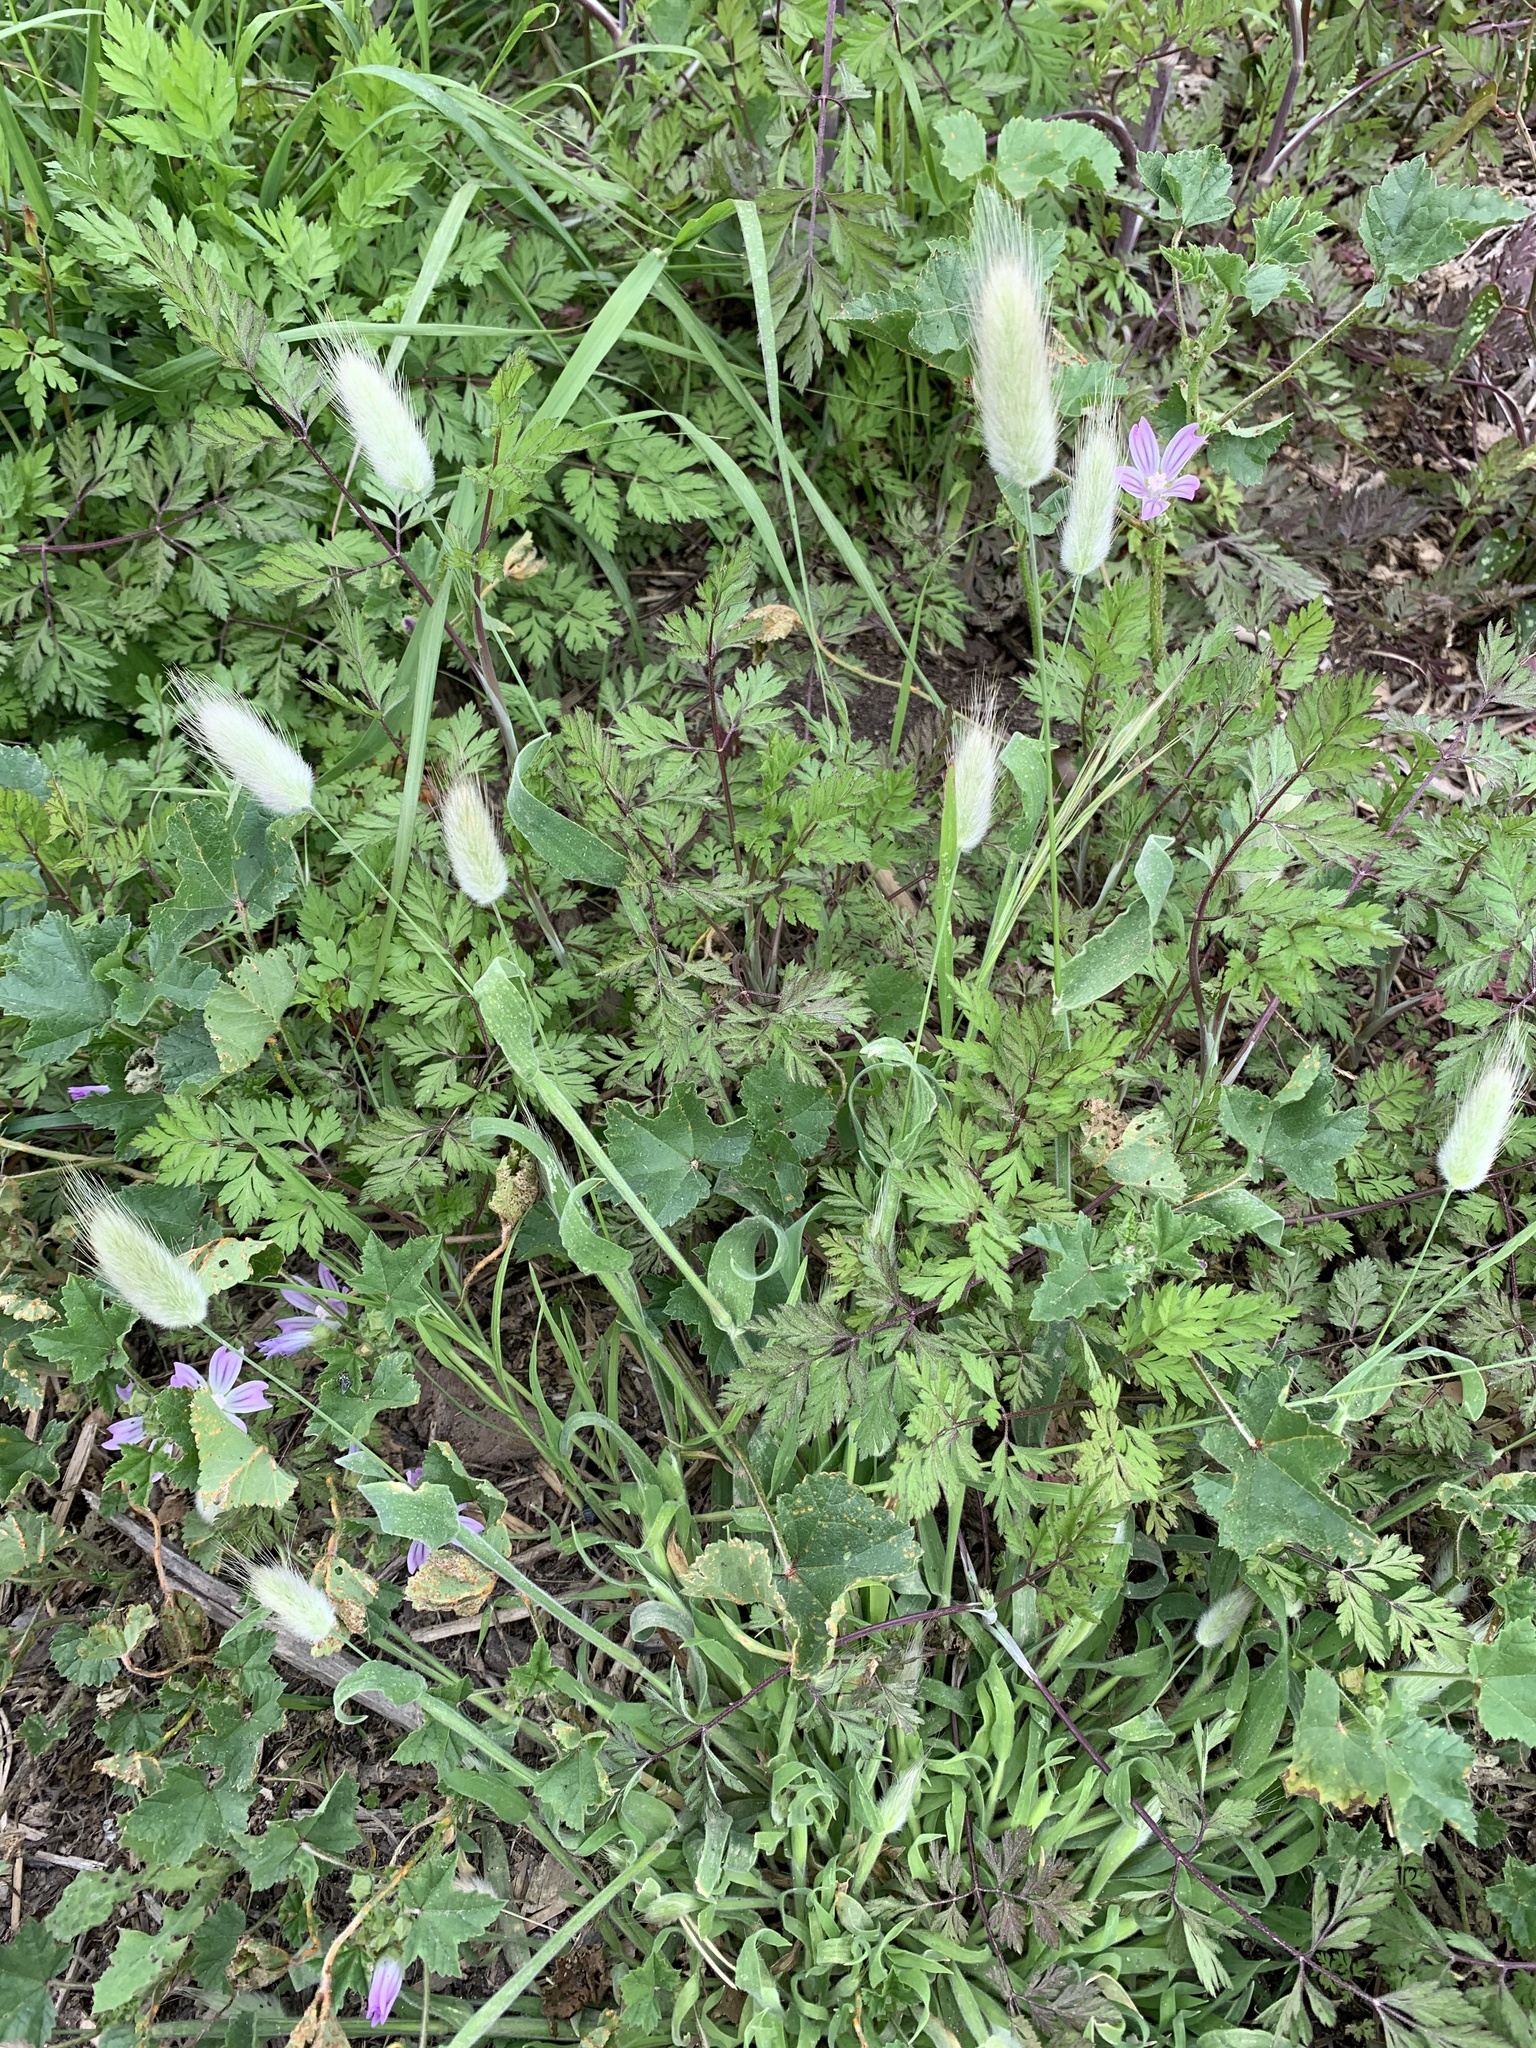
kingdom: Plantae
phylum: Tracheophyta
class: Liliopsida
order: Poales
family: Poaceae
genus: Lagurus
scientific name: Lagurus ovatus
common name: Hare's-tail
